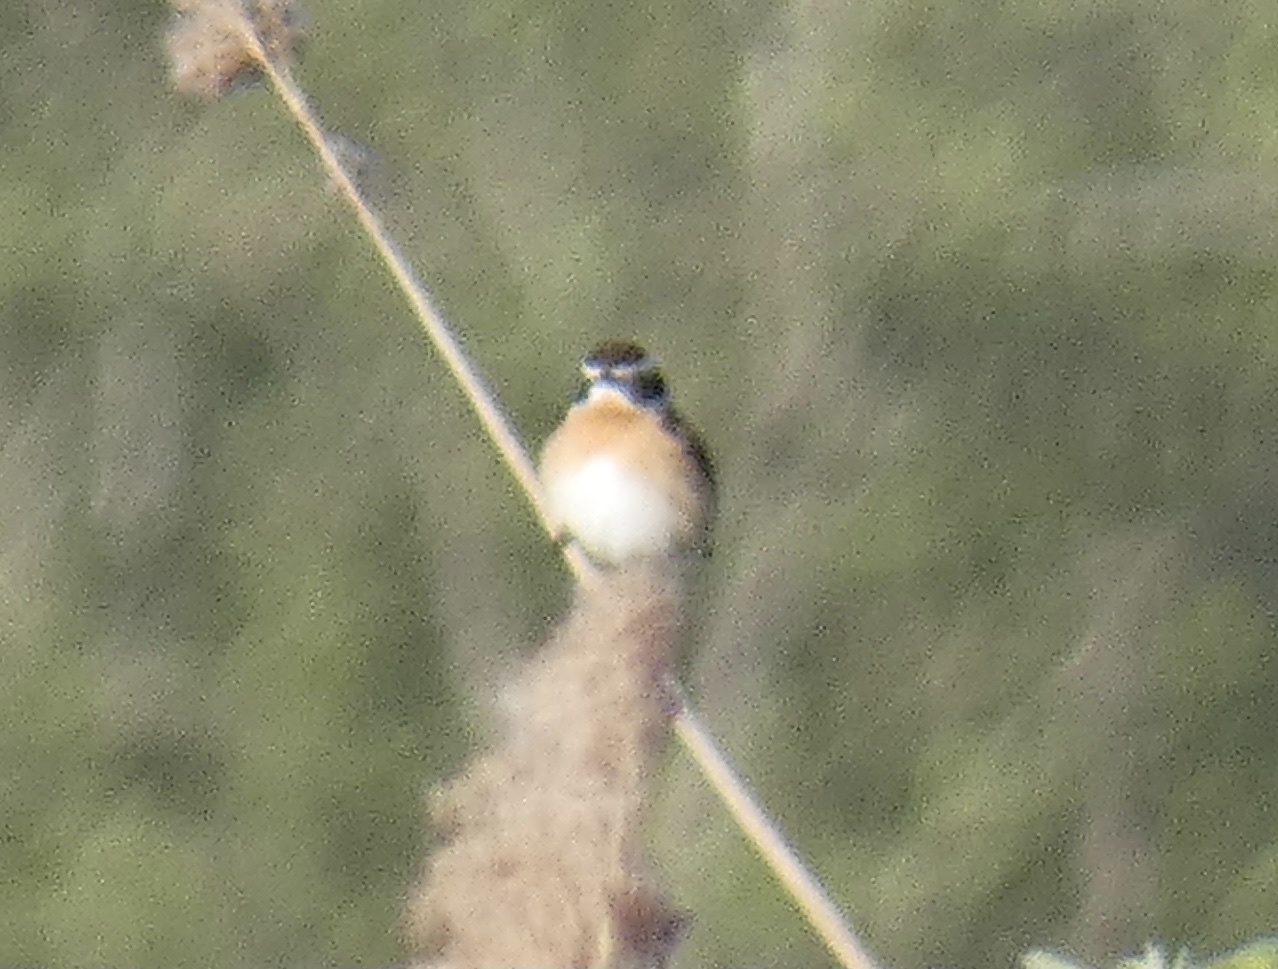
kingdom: Animalia
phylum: Chordata
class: Aves
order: Passeriformes
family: Muscicapidae
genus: Saxicola
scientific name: Saxicola rubetra
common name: Whinchat
